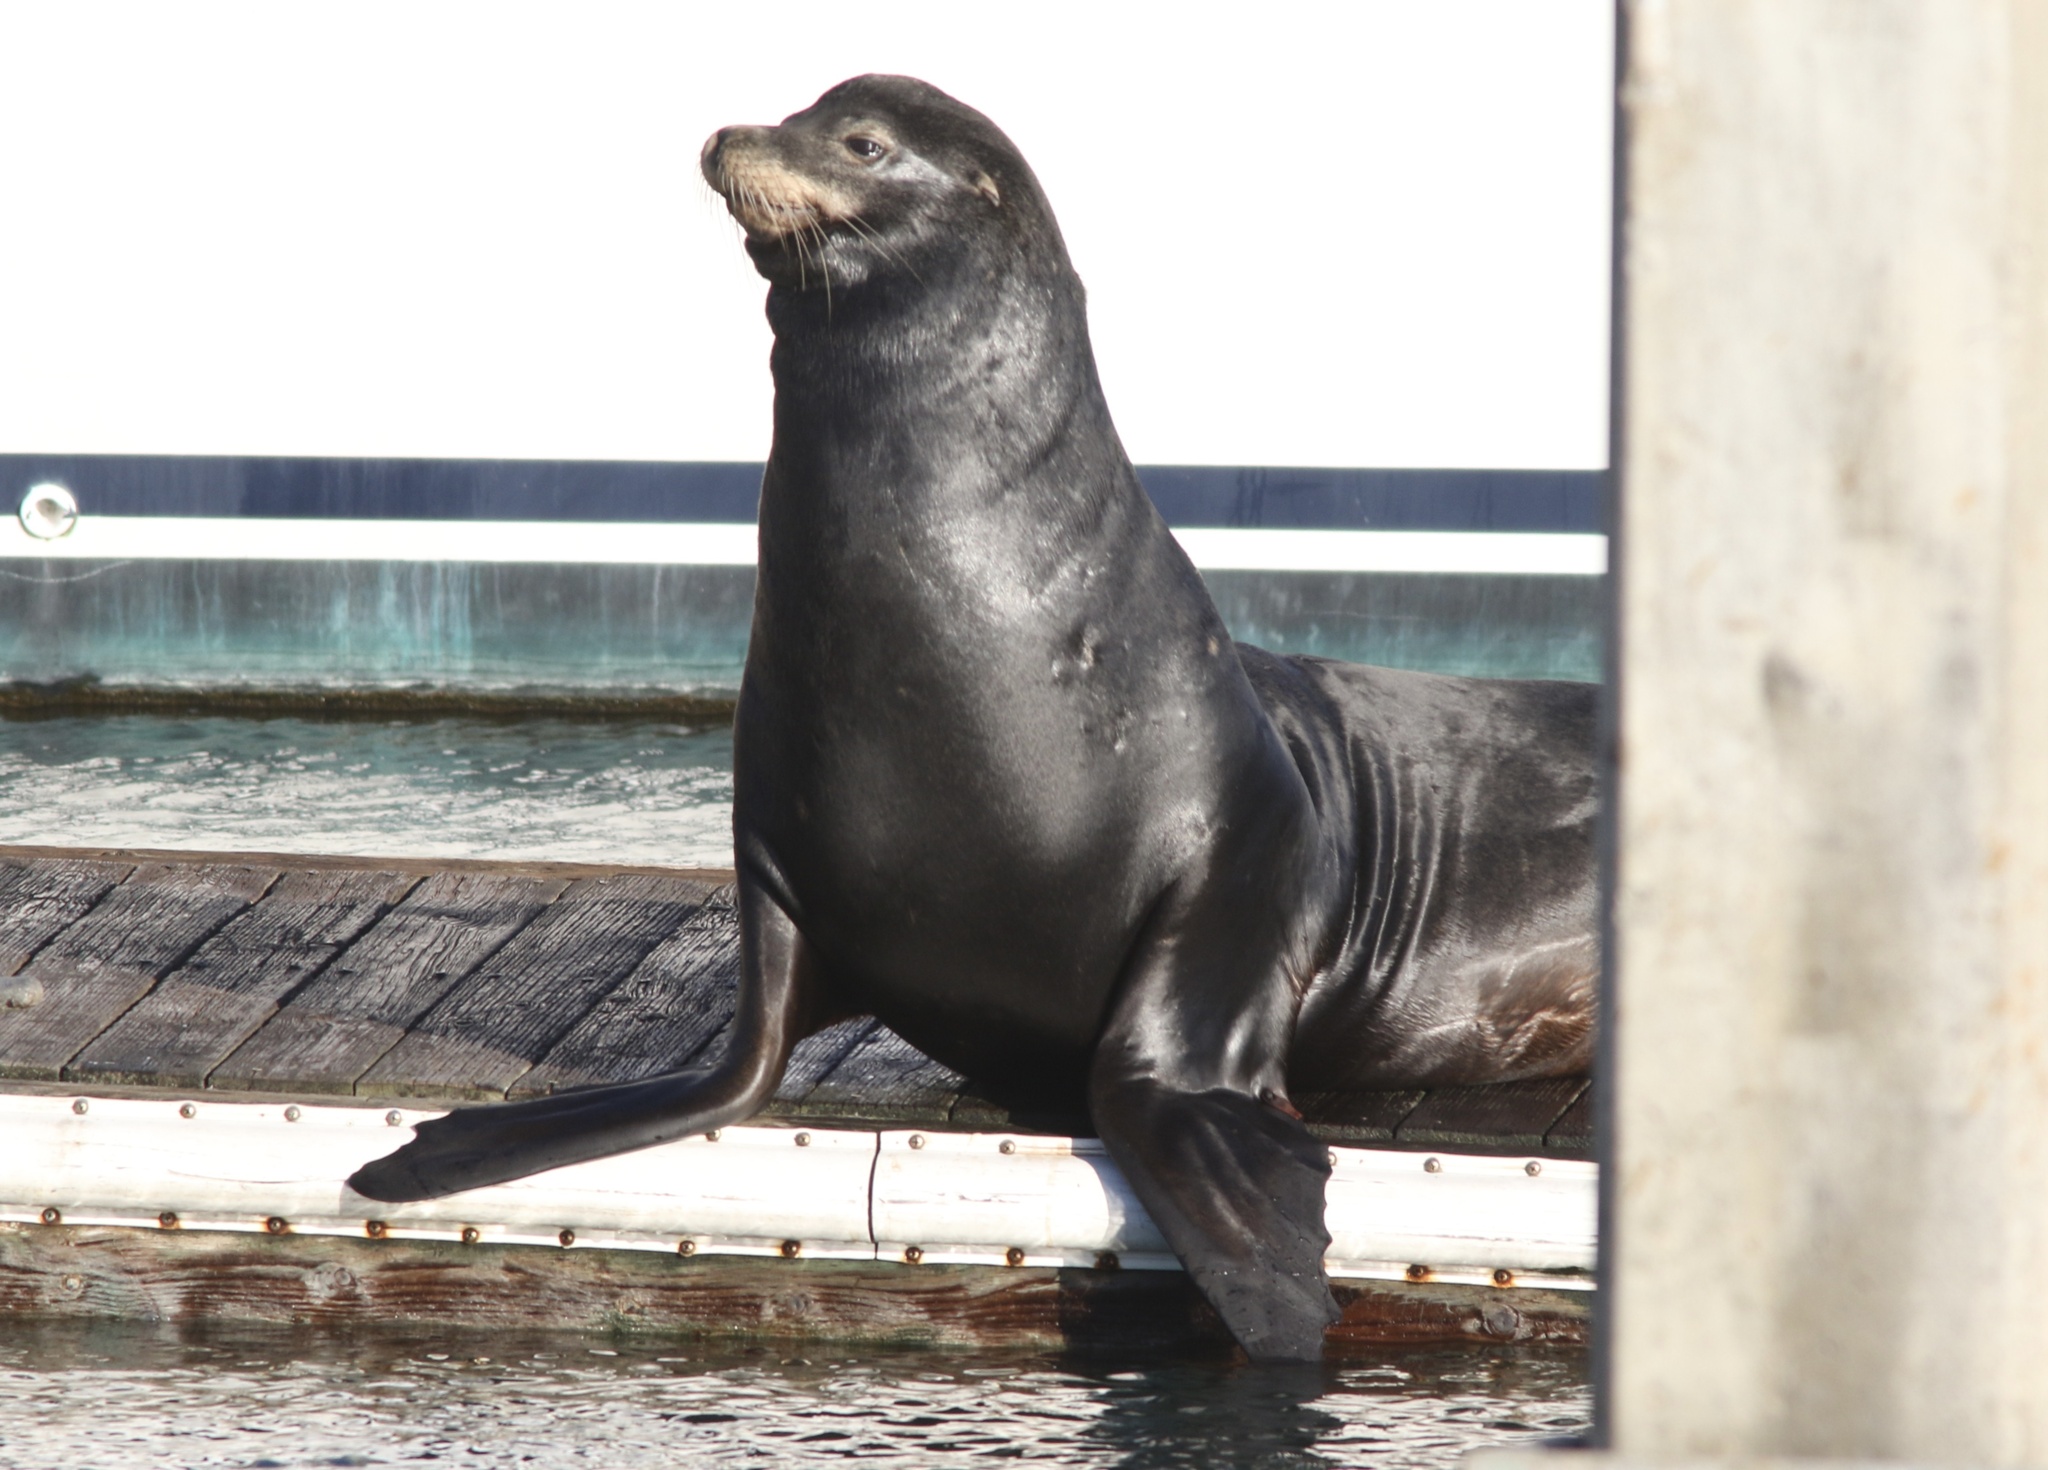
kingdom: Animalia
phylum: Chordata
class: Mammalia
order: Carnivora
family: Otariidae
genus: Zalophus
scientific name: Zalophus californianus
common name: California sea lion
